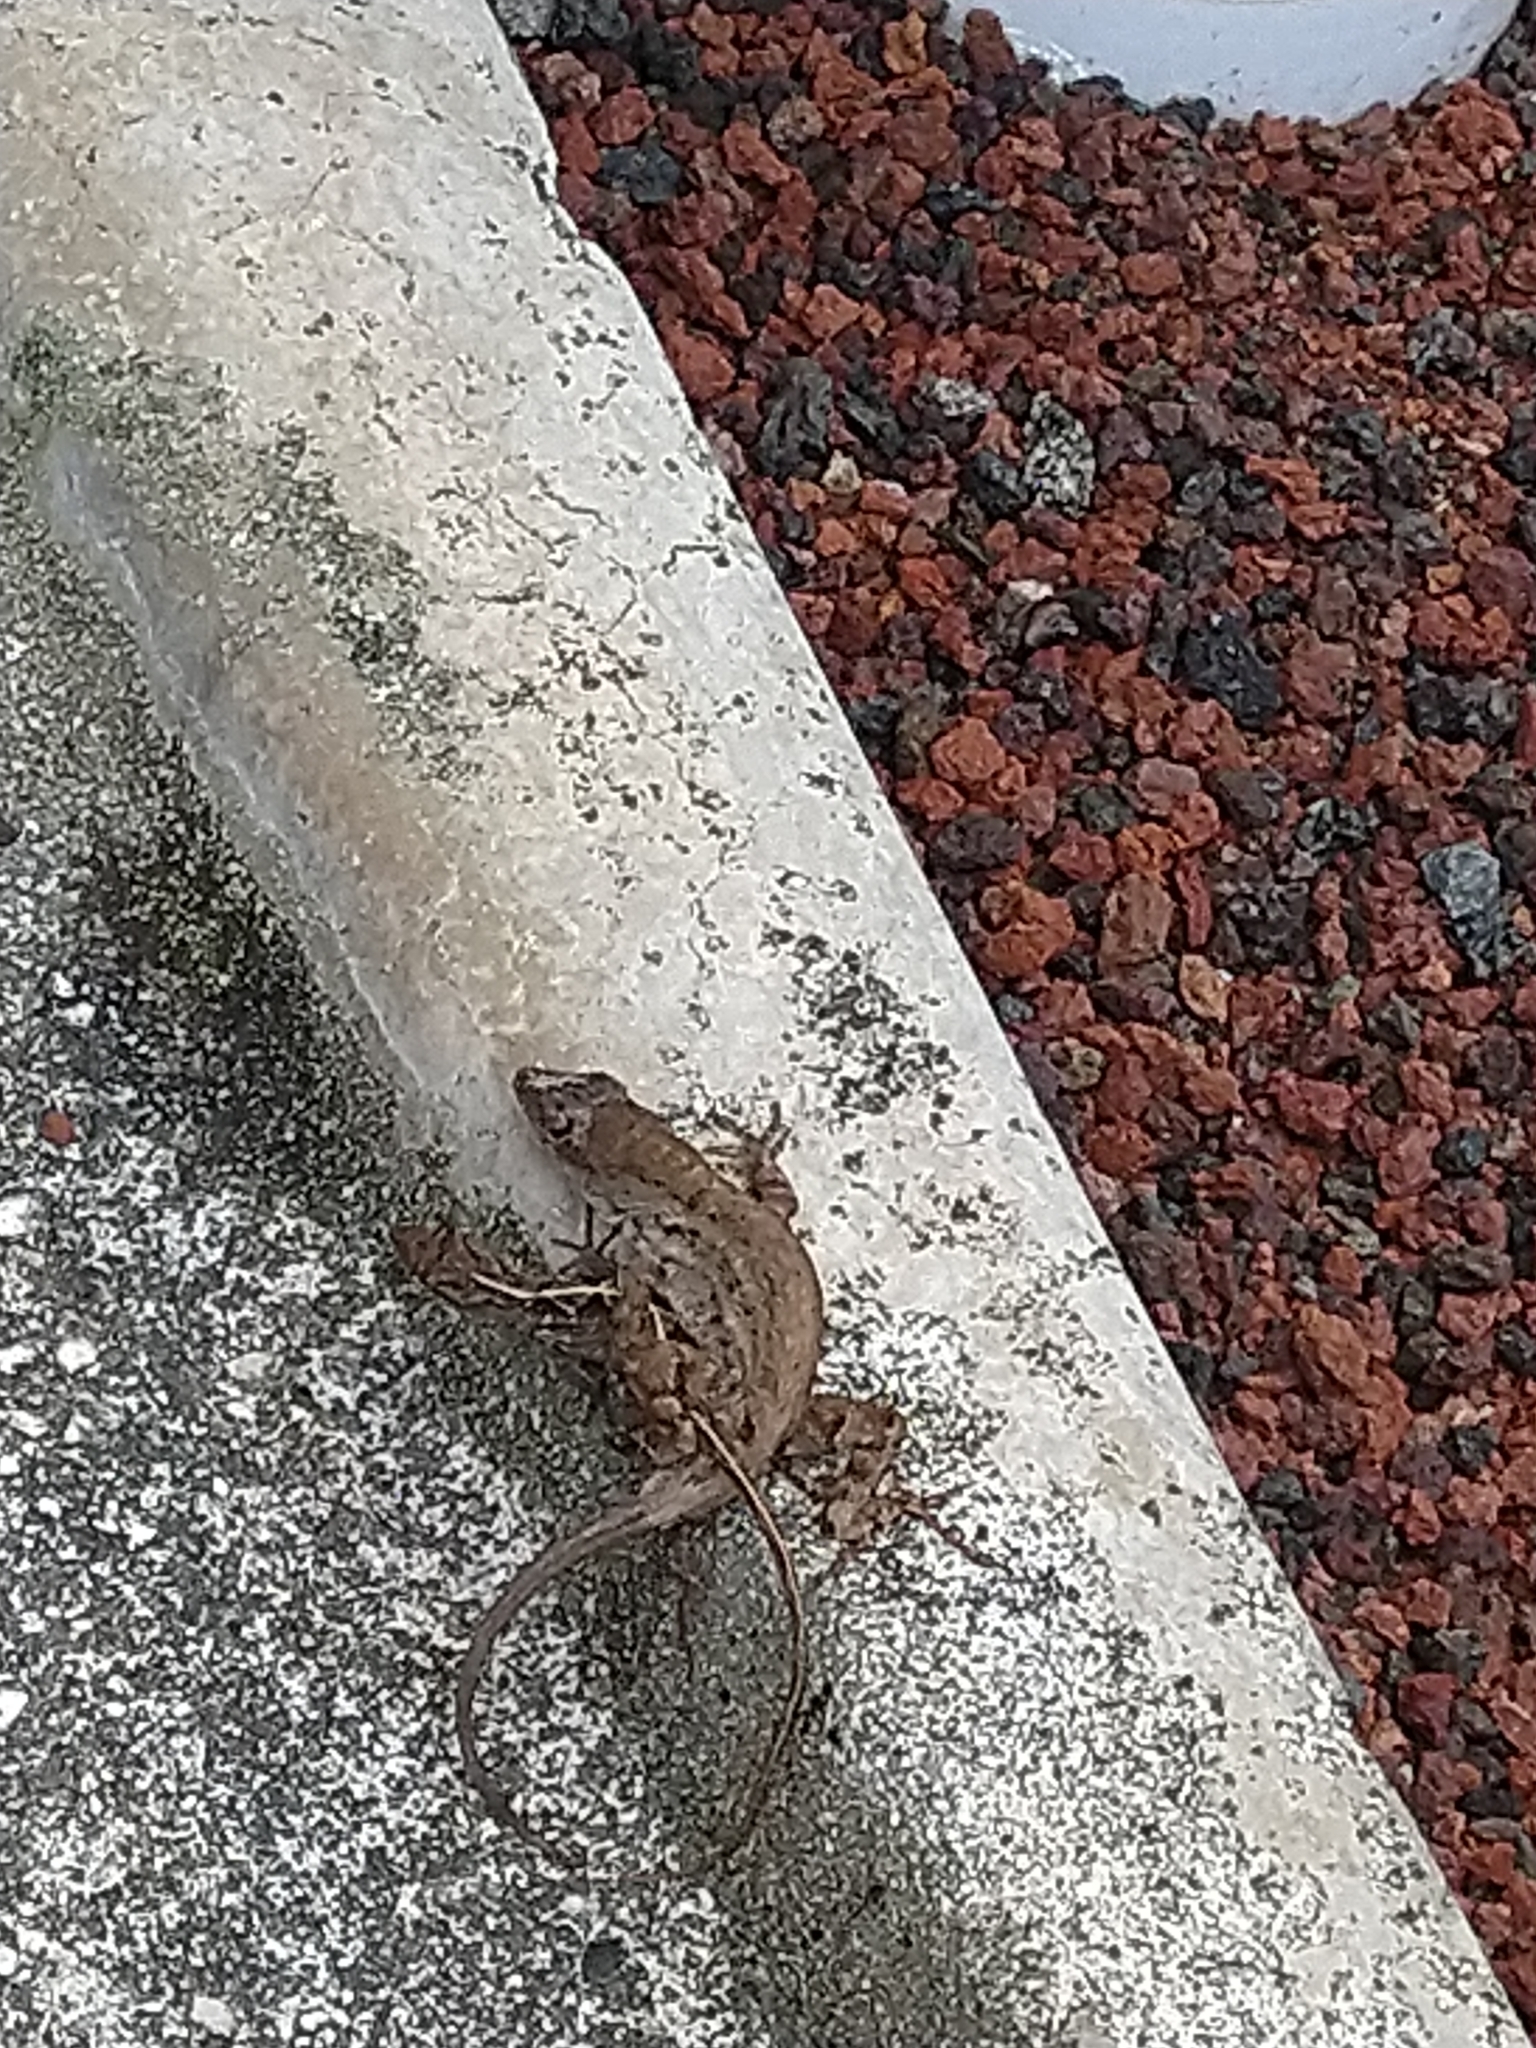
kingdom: Animalia
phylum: Chordata
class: Squamata
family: Dactyloidae
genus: Anolis
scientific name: Anolis sagrei
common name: Brown anole
